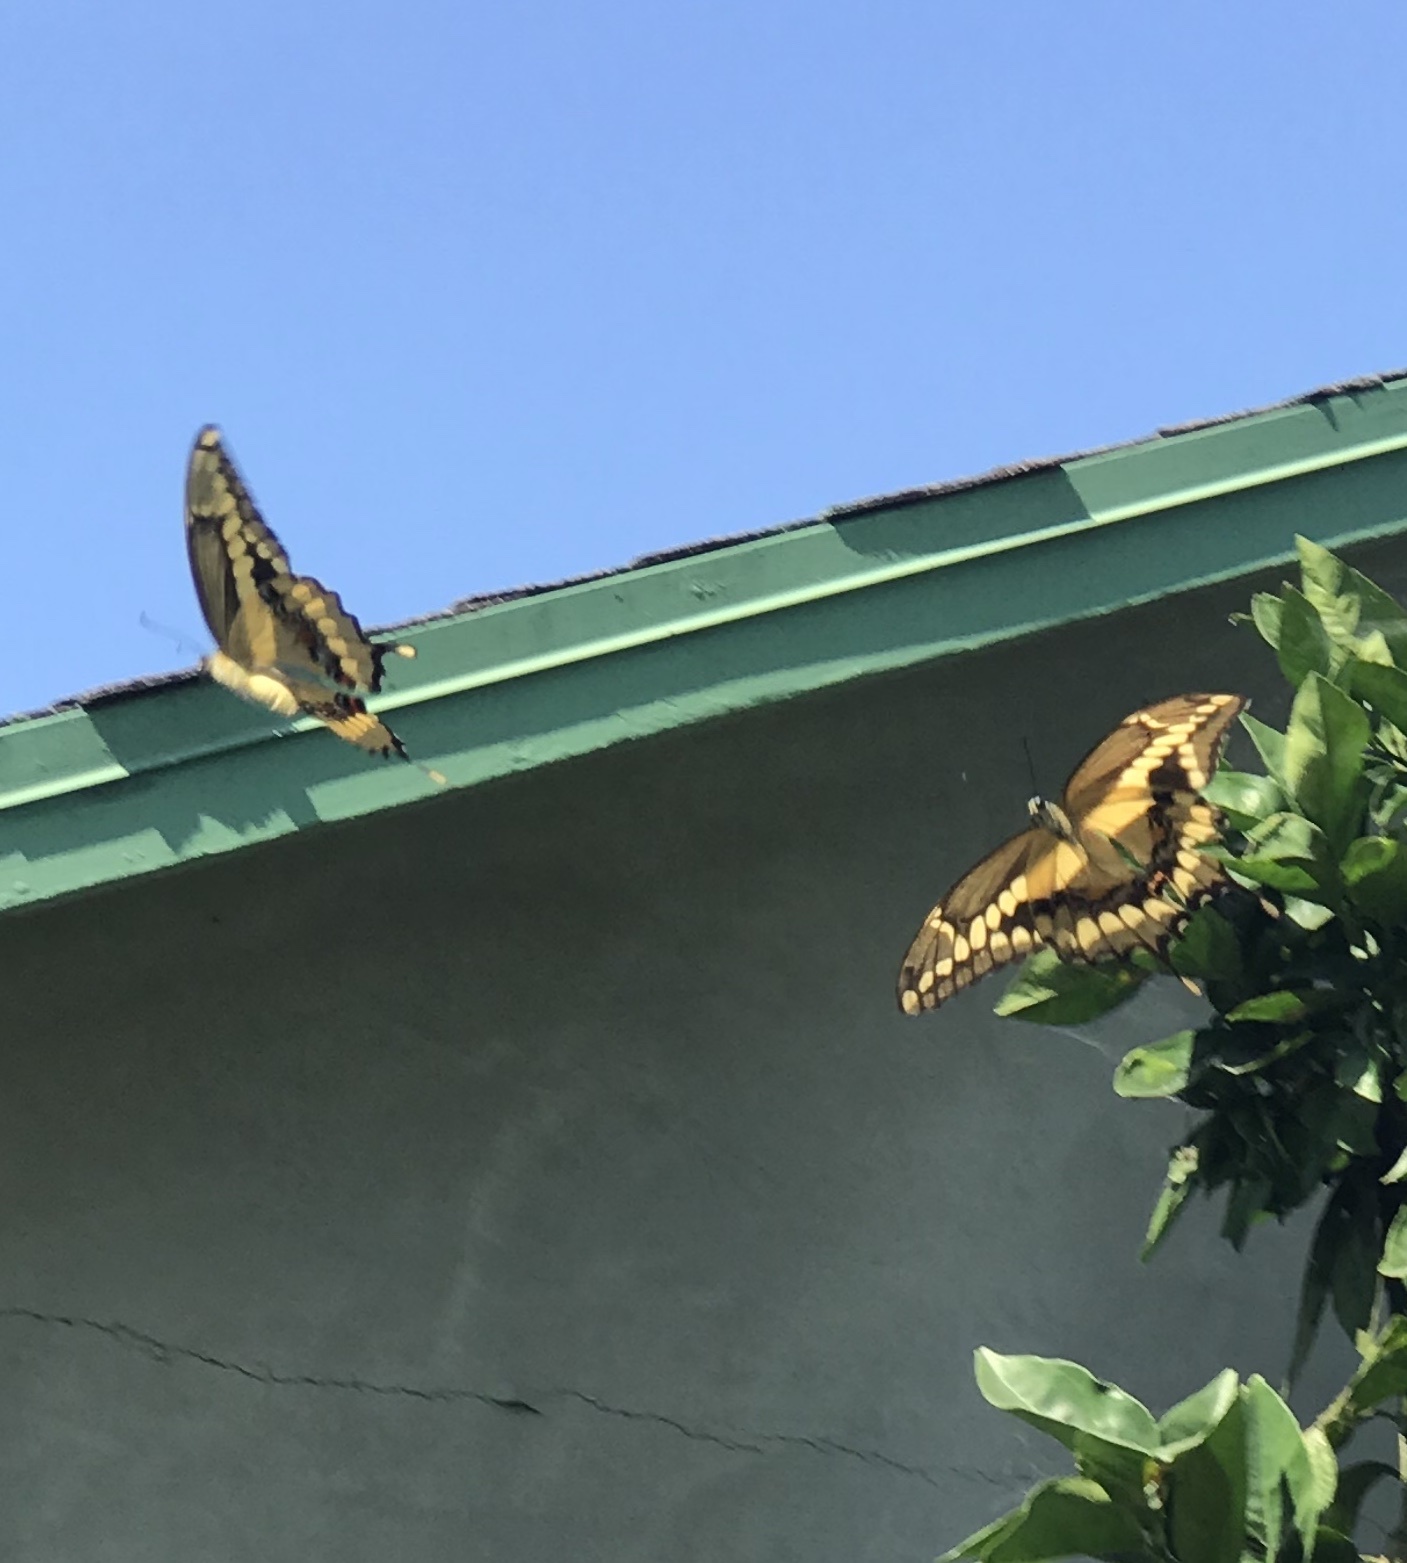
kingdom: Animalia
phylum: Arthropoda
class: Insecta
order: Lepidoptera
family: Papilionidae
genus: Papilio
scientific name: Papilio rumiko
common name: Western giant swallowtail
